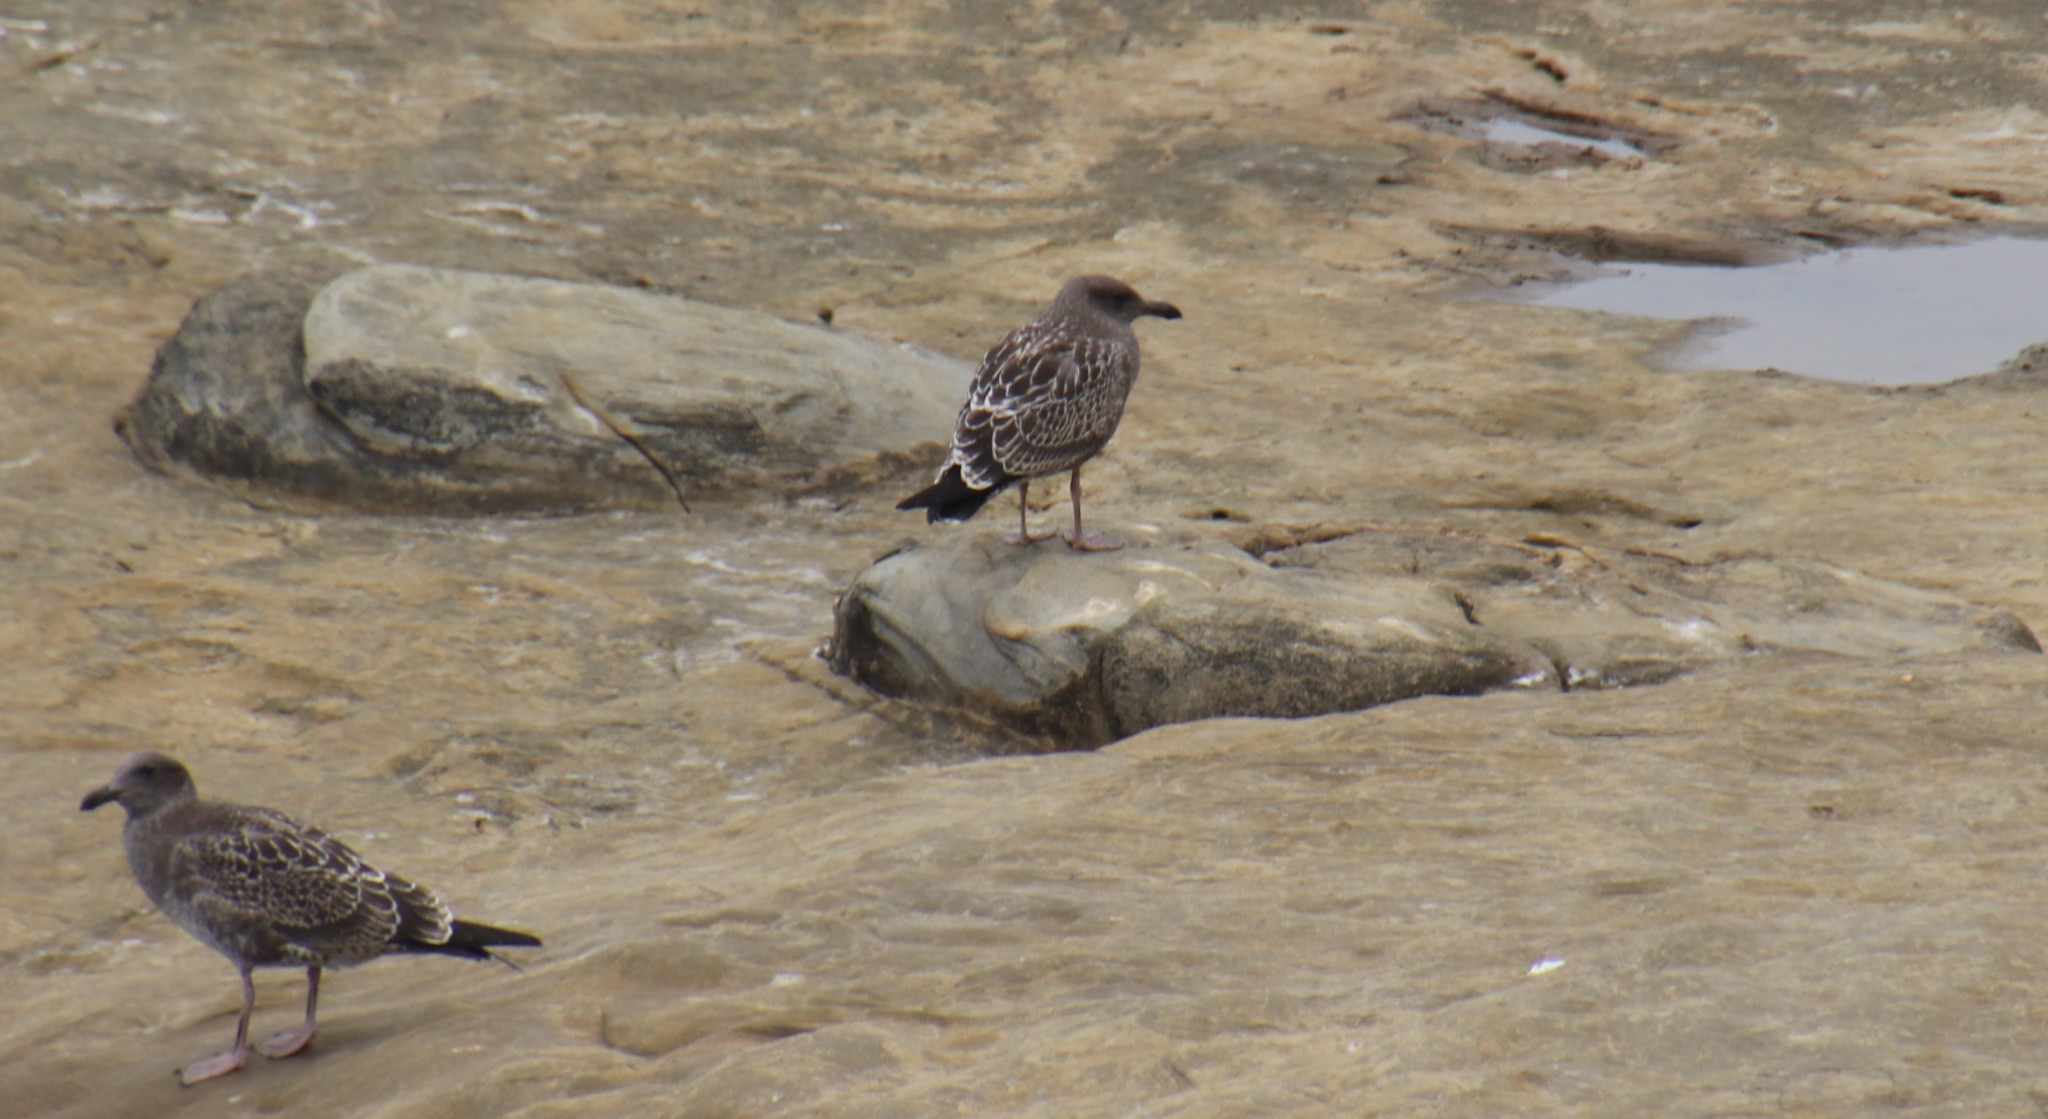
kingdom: Animalia
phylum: Chordata
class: Aves
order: Charadriiformes
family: Laridae
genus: Larus
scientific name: Larus occidentalis
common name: Western gull
